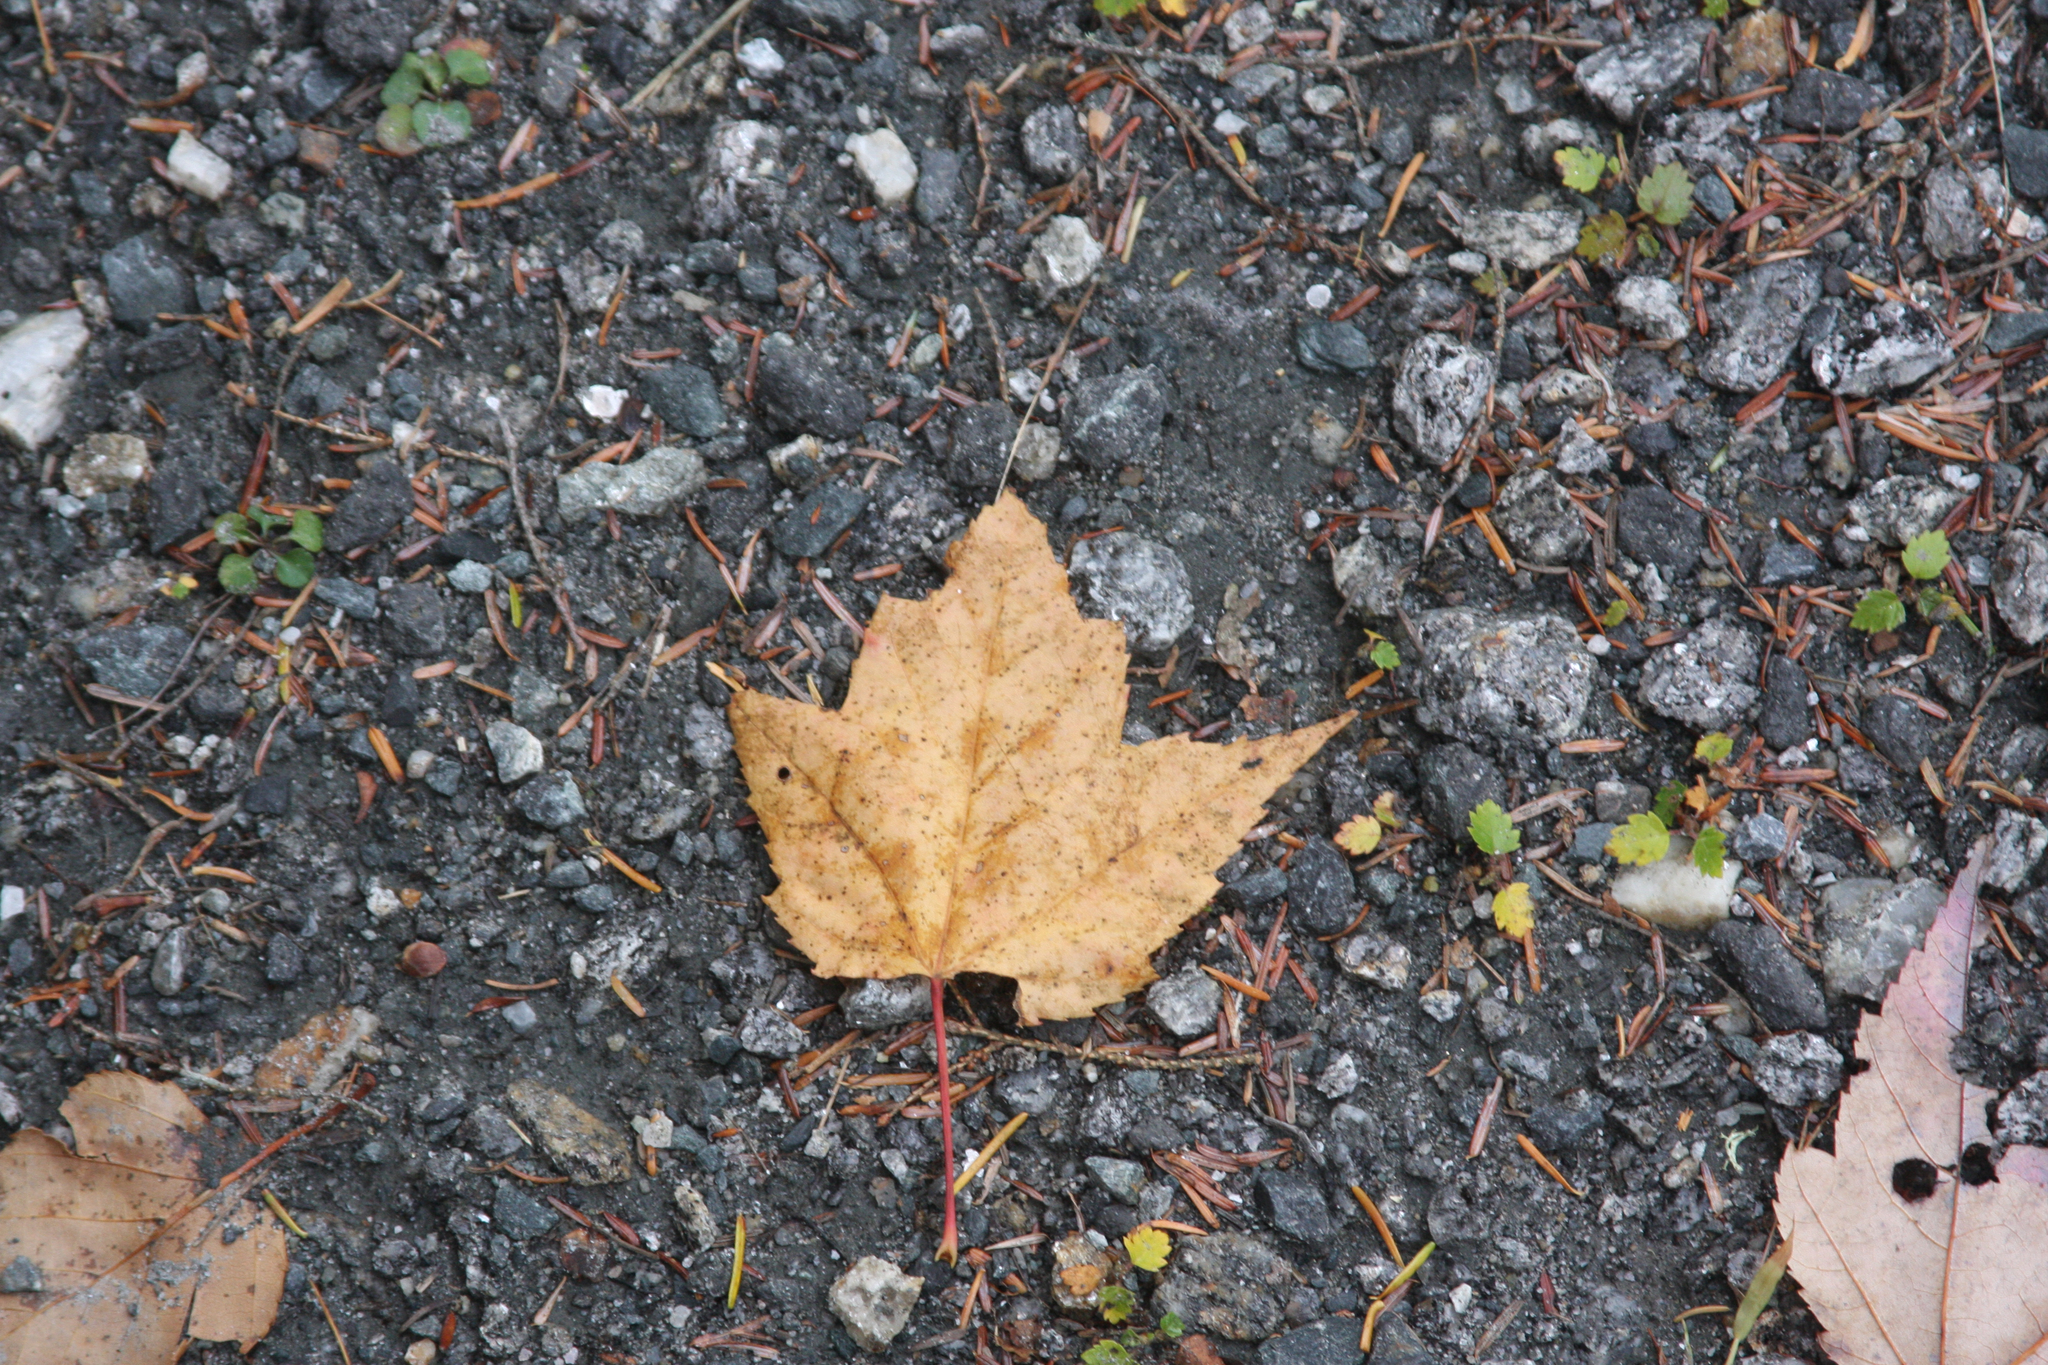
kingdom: Plantae
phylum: Tracheophyta
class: Magnoliopsida
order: Sapindales
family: Sapindaceae
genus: Acer
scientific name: Acer rubrum
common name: Red maple
